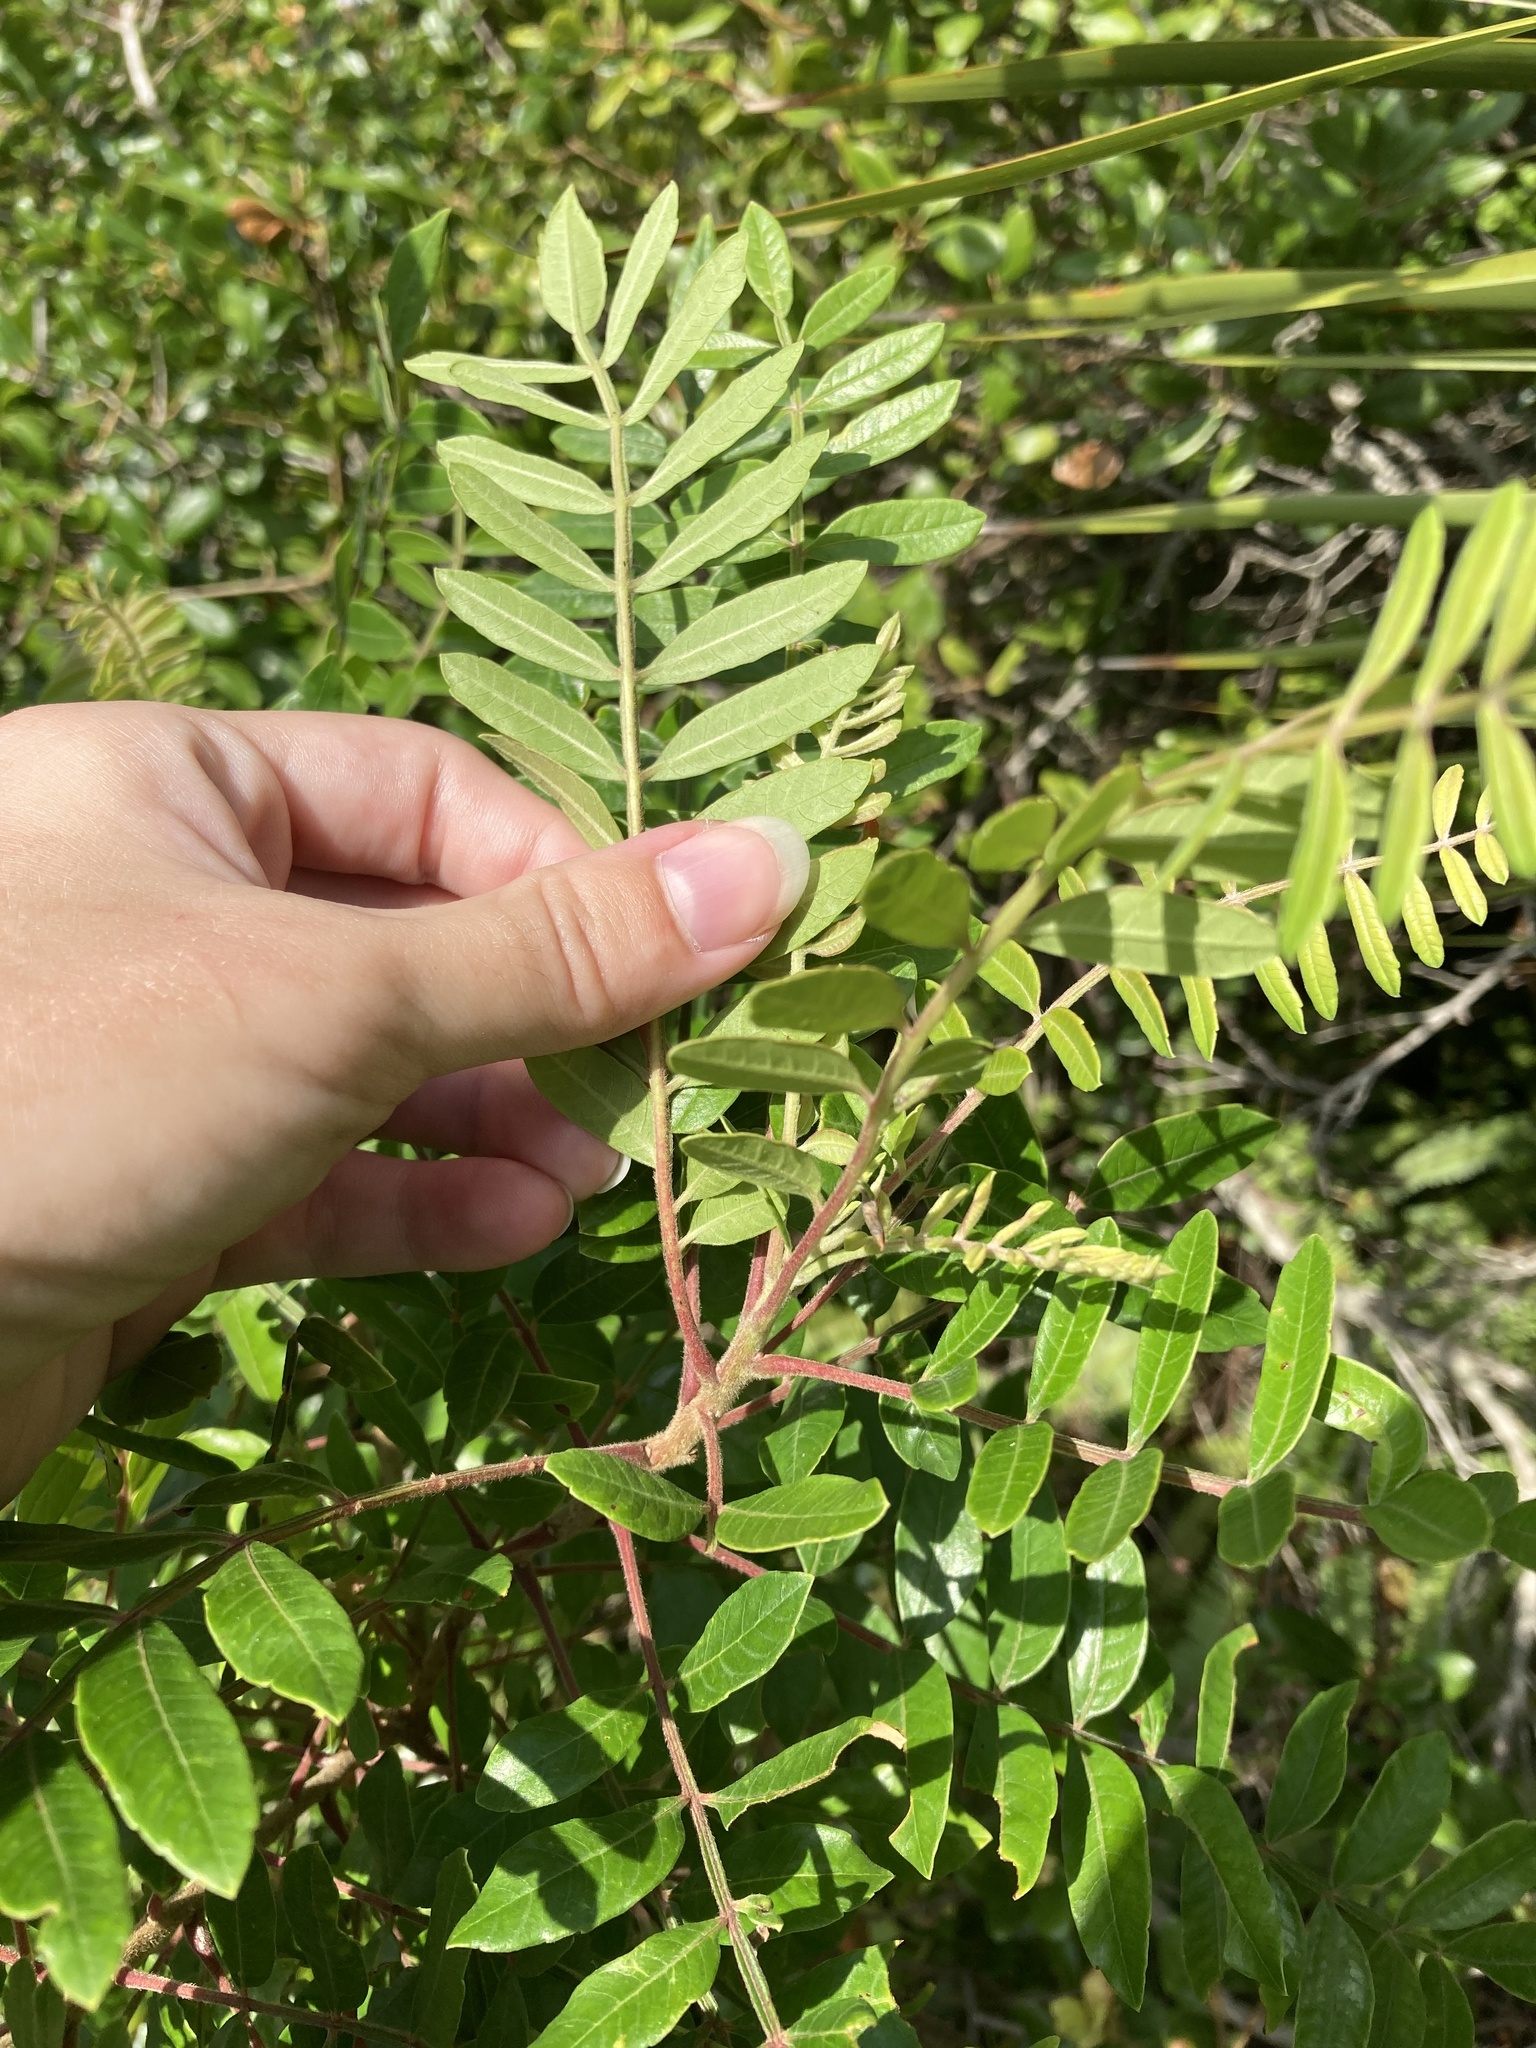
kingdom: Plantae
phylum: Tracheophyta
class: Magnoliopsida
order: Sapindales
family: Anacardiaceae
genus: Rhus
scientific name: Rhus copallina
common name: Shining sumac
